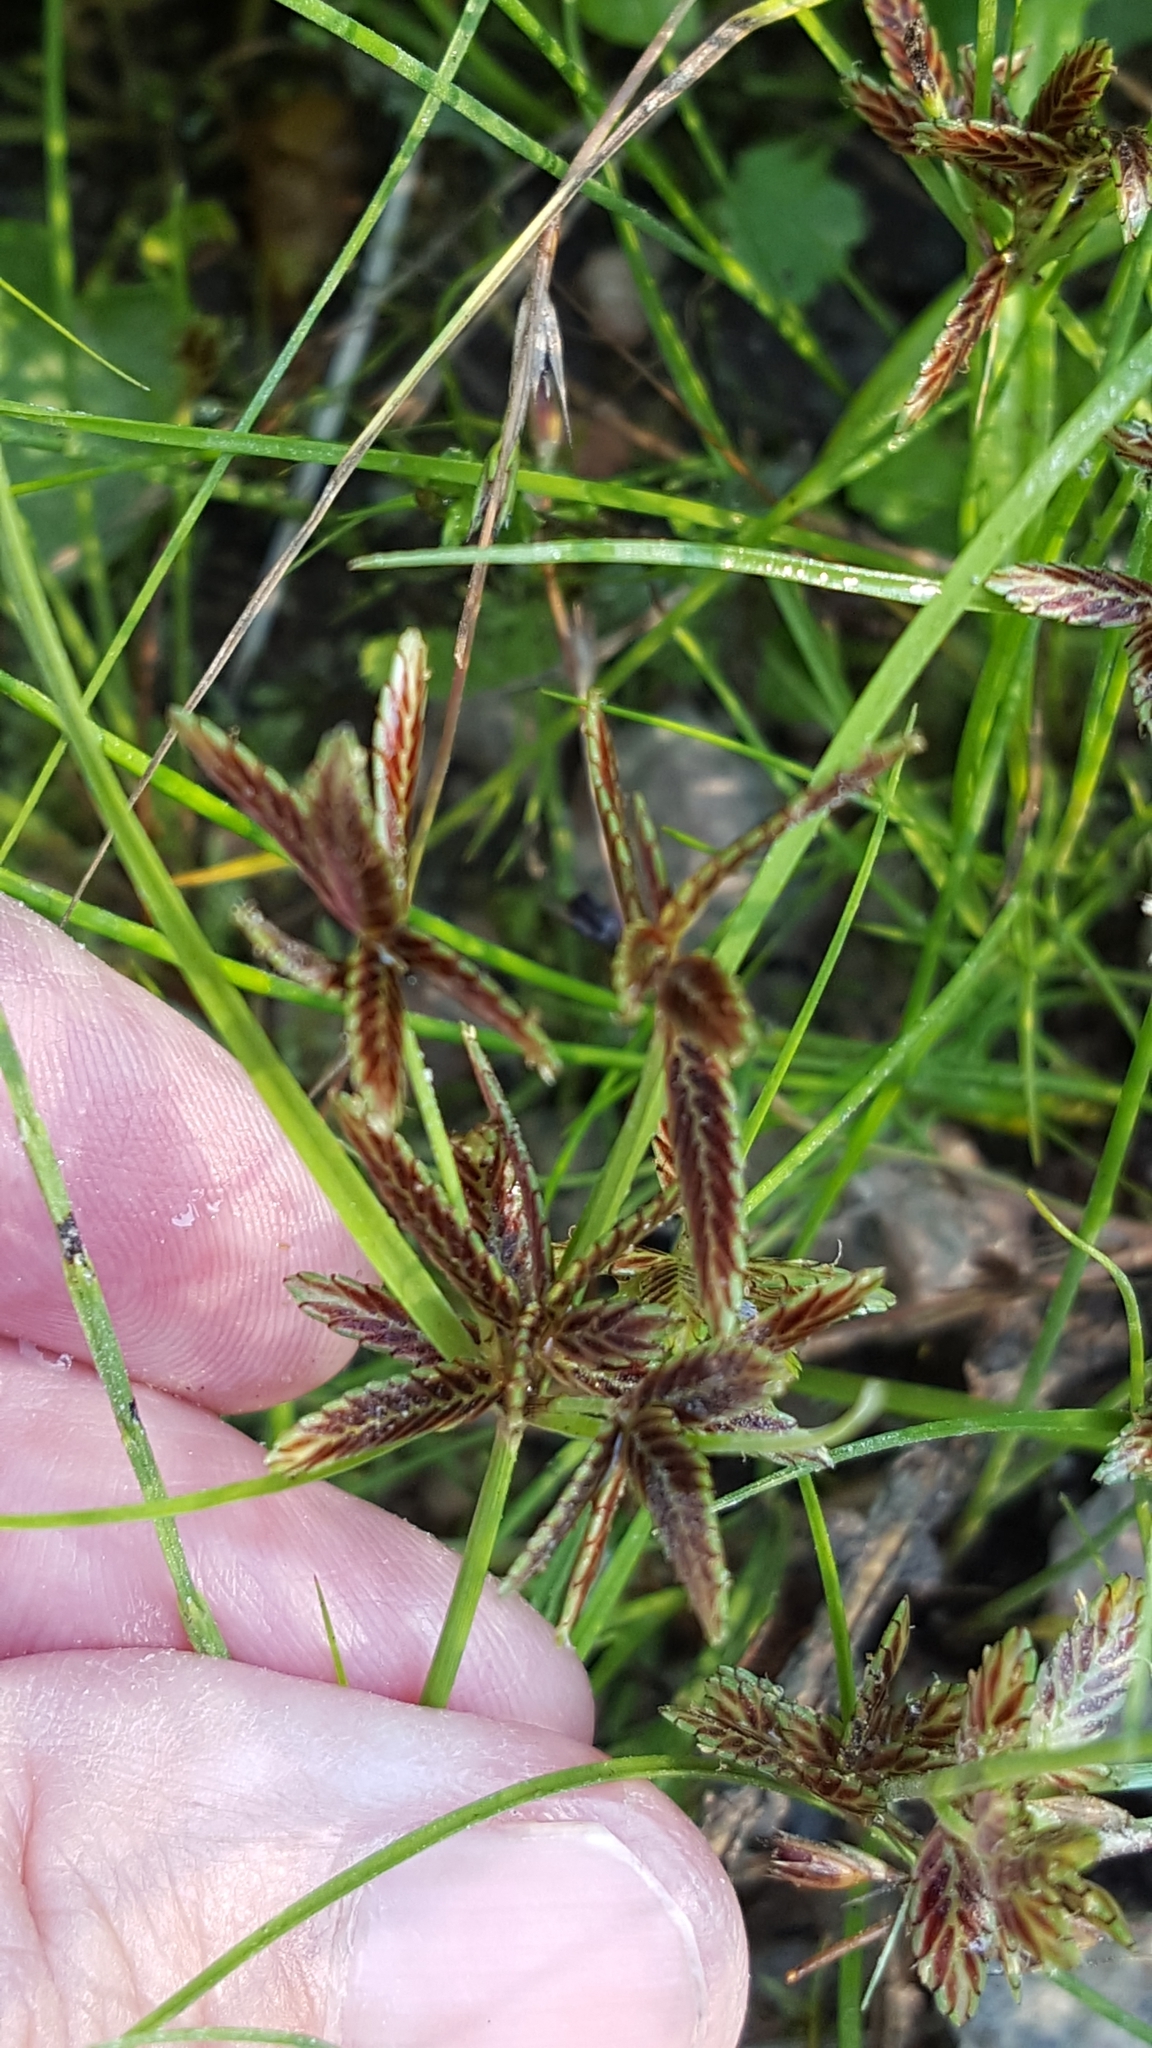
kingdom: Plantae
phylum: Tracheophyta
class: Liliopsida
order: Poales
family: Cyperaceae
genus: Cyperus
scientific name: Cyperus bipartitus
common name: Brook flatsedge
